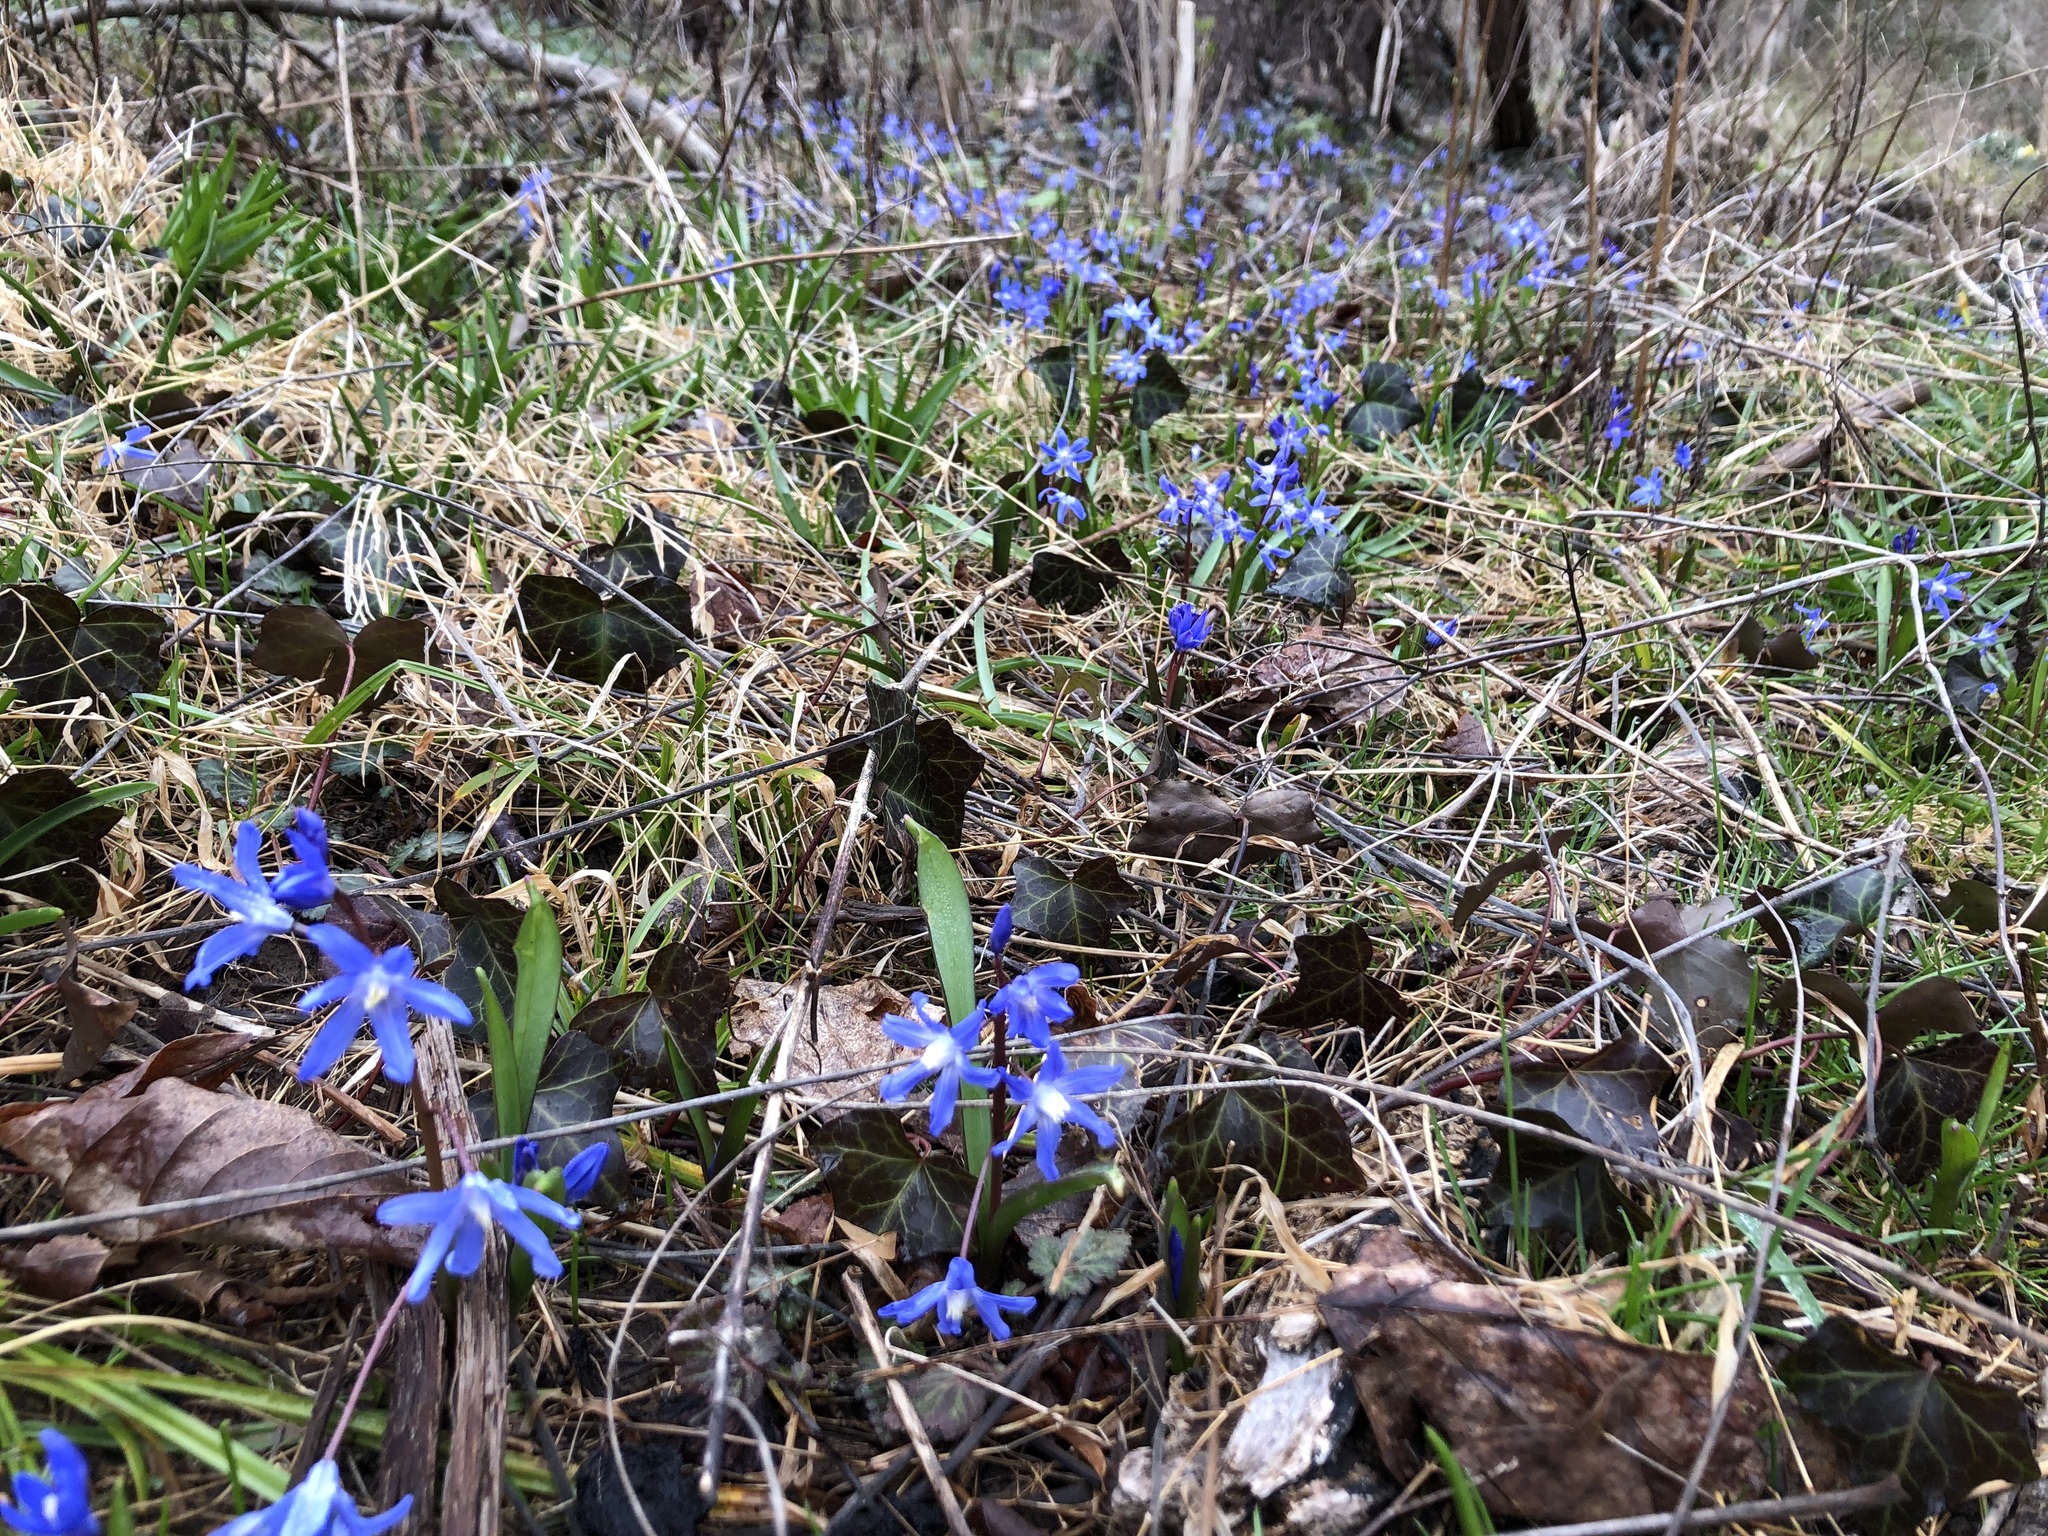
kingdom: Plantae
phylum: Tracheophyta
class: Liliopsida
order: Asparagales
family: Asparagaceae
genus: Scilla
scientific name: Scilla siberica
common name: Siberian squill
